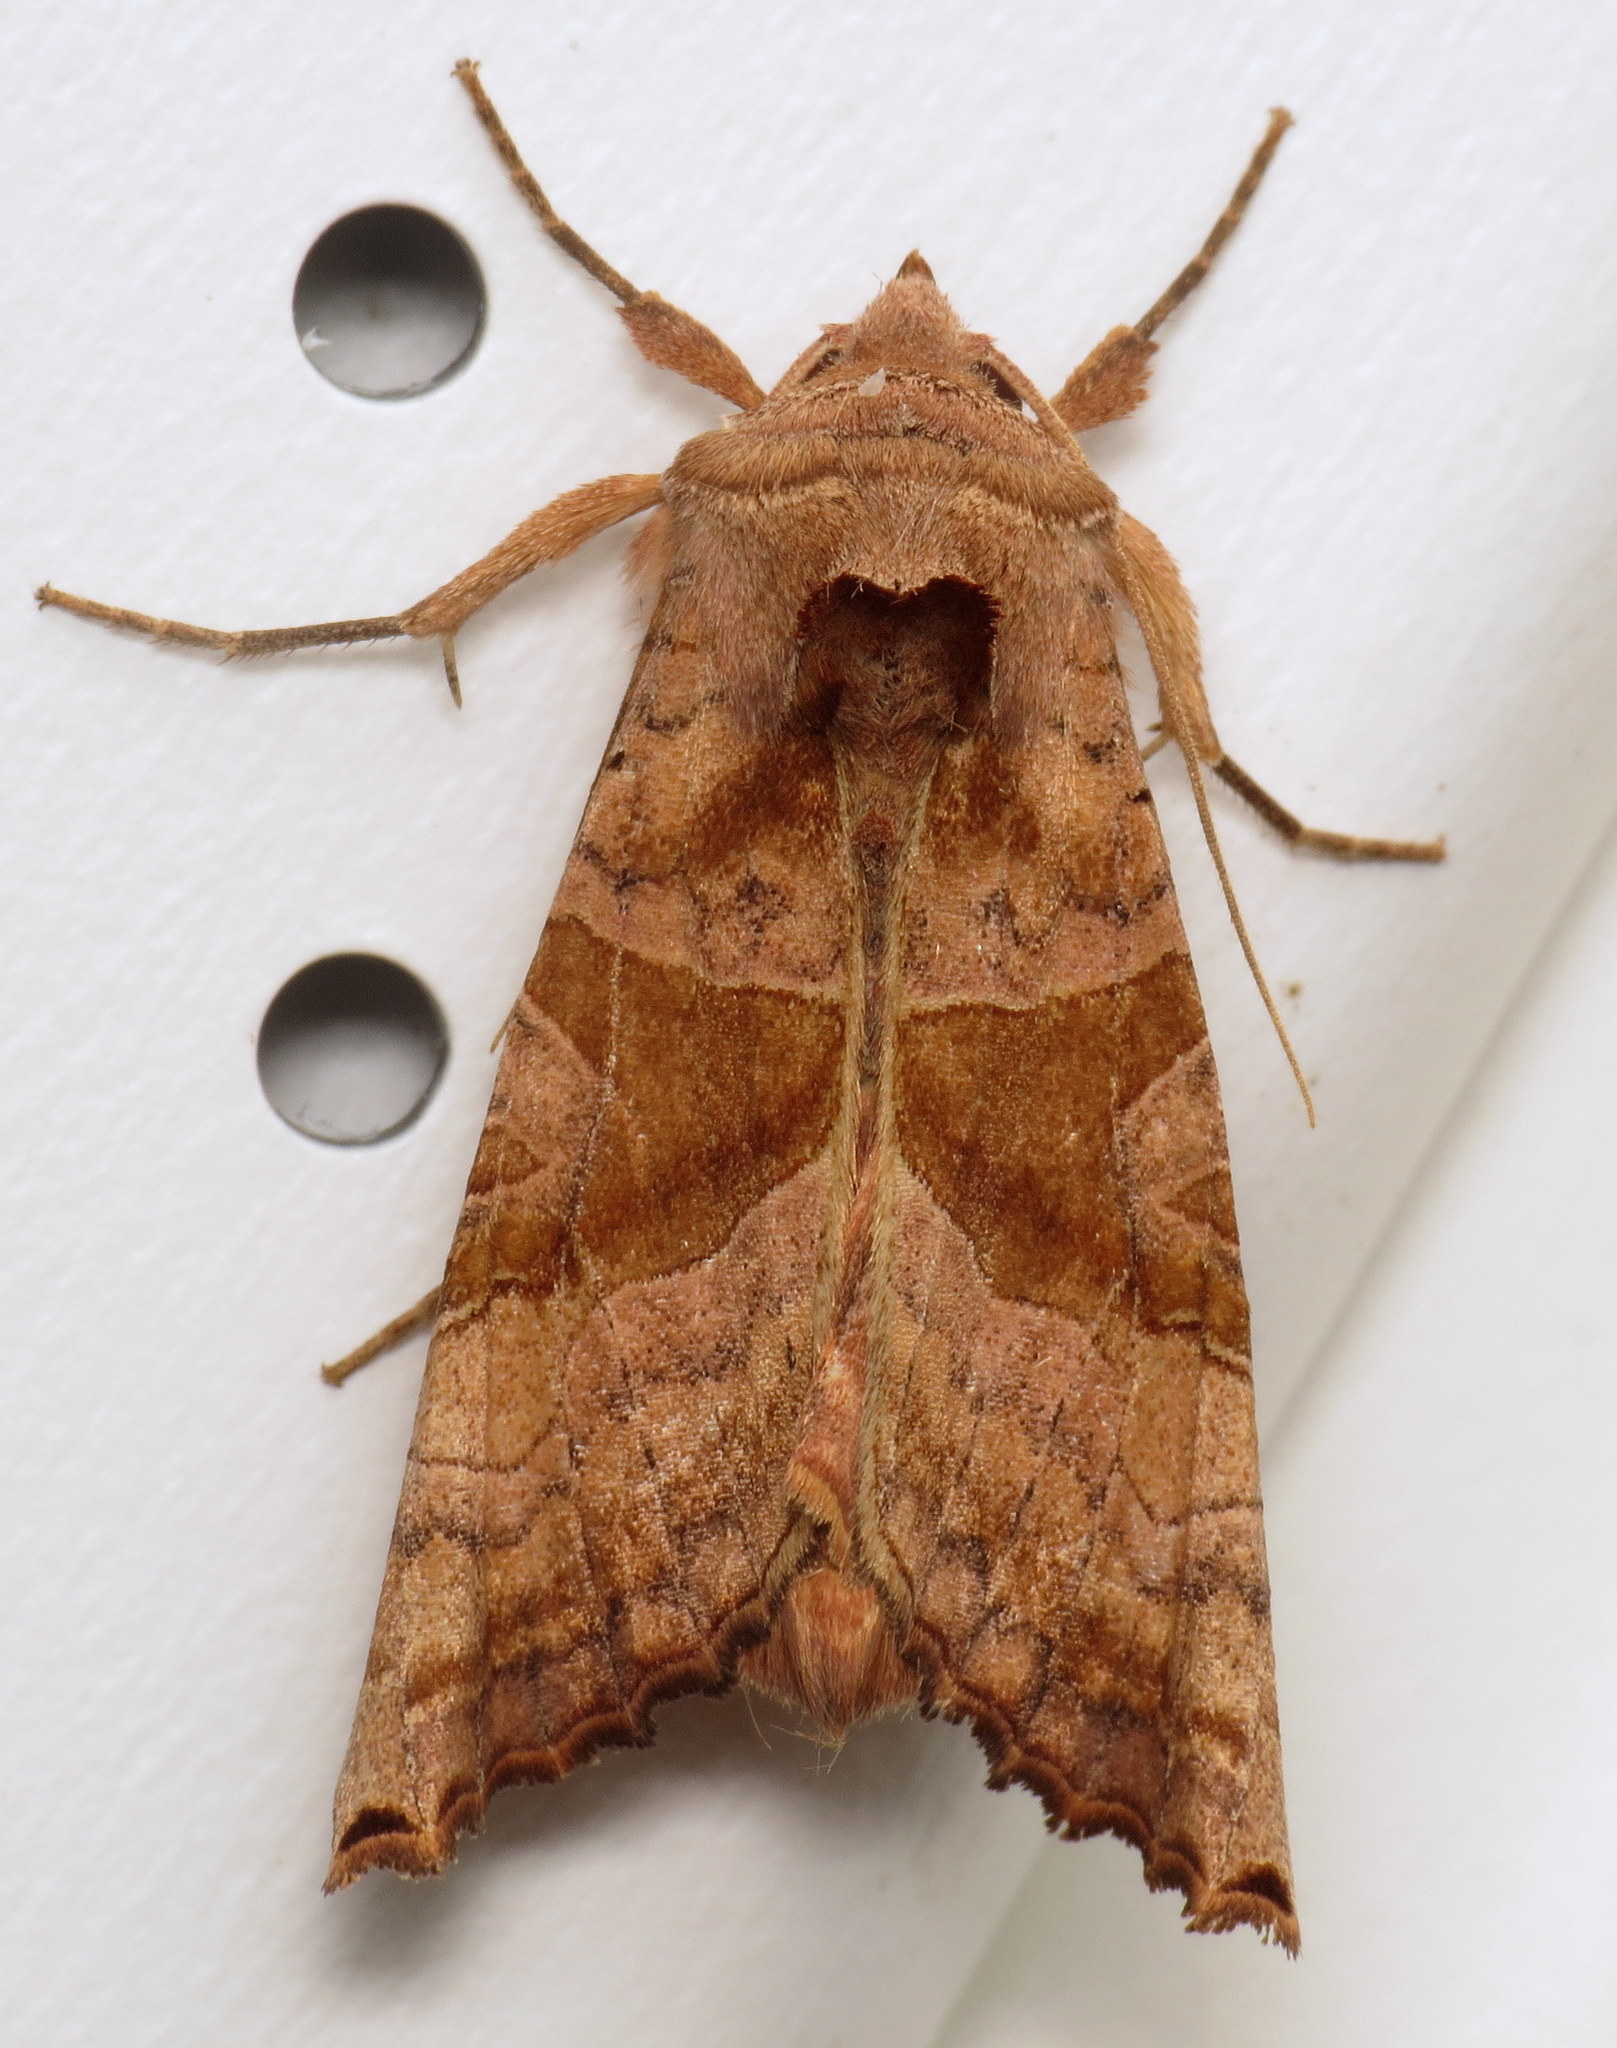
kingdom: Animalia
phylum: Arthropoda
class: Insecta
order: Lepidoptera
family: Noctuidae
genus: Phlogophora
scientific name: Phlogophora periculosa
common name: Brown angle shades
